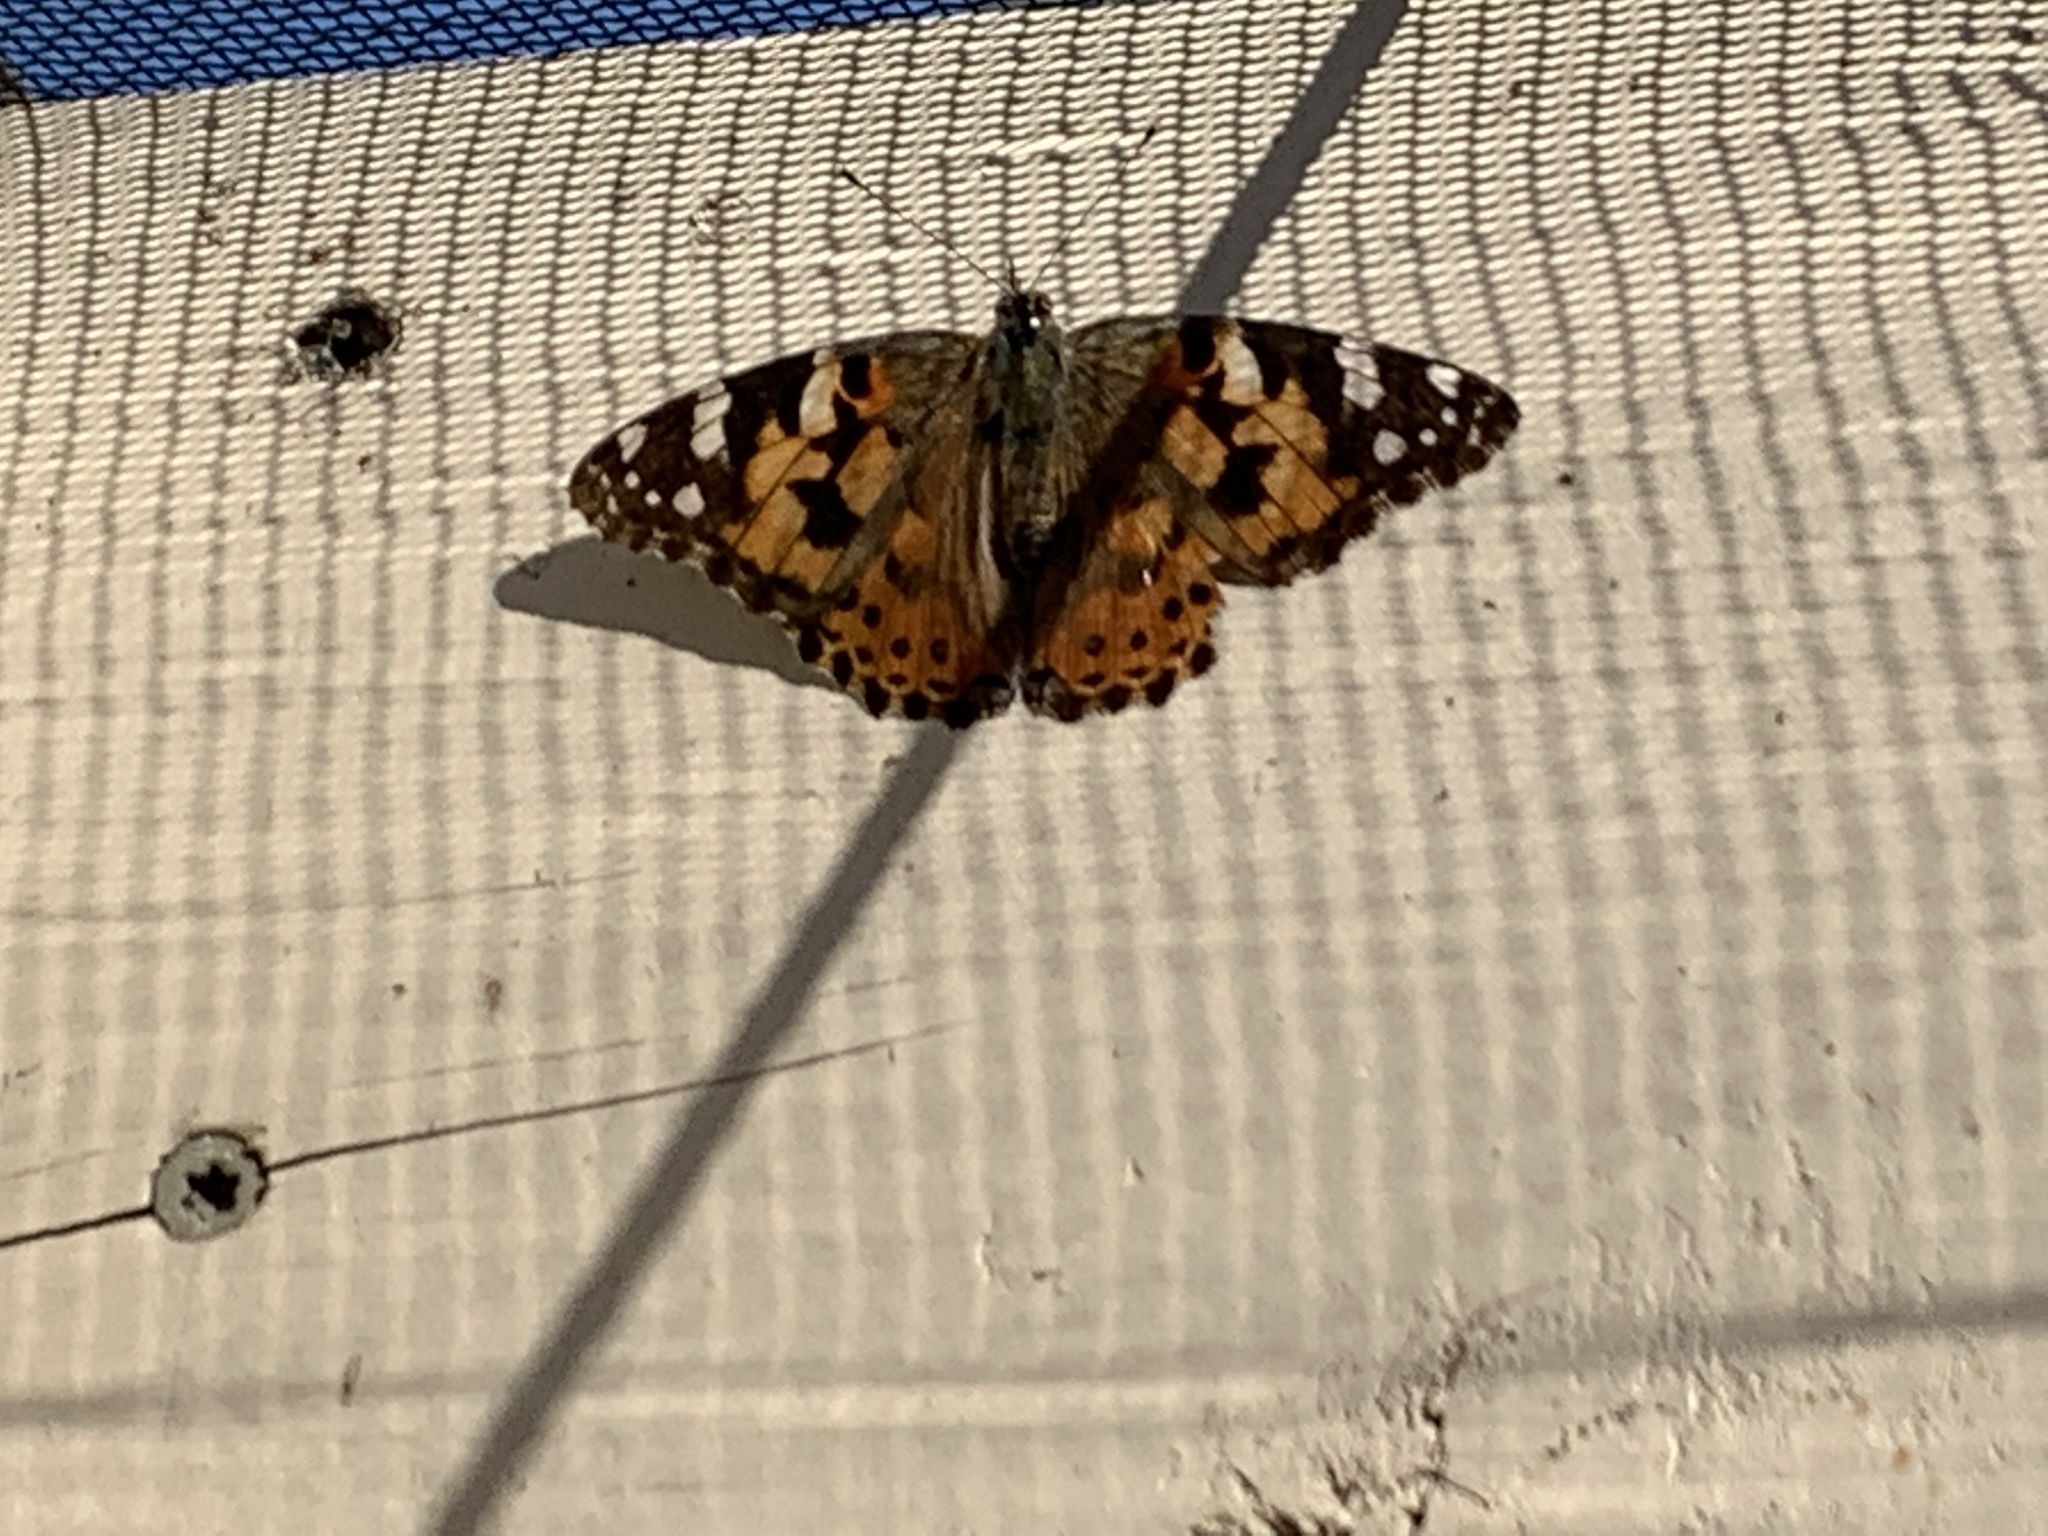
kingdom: Animalia
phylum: Arthropoda
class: Insecta
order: Lepidoptera
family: Nymphalidae
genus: Vanessa
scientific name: Vanessa cardui
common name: Painted lady
